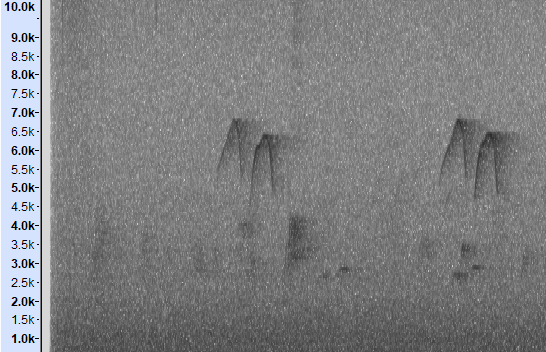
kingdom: Animalia
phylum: Chordata
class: Aves
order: Passeriformes
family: Campephagidae
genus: Pericrocotus
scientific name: Pericrocotus solaris
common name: Grey-chinned minivet
